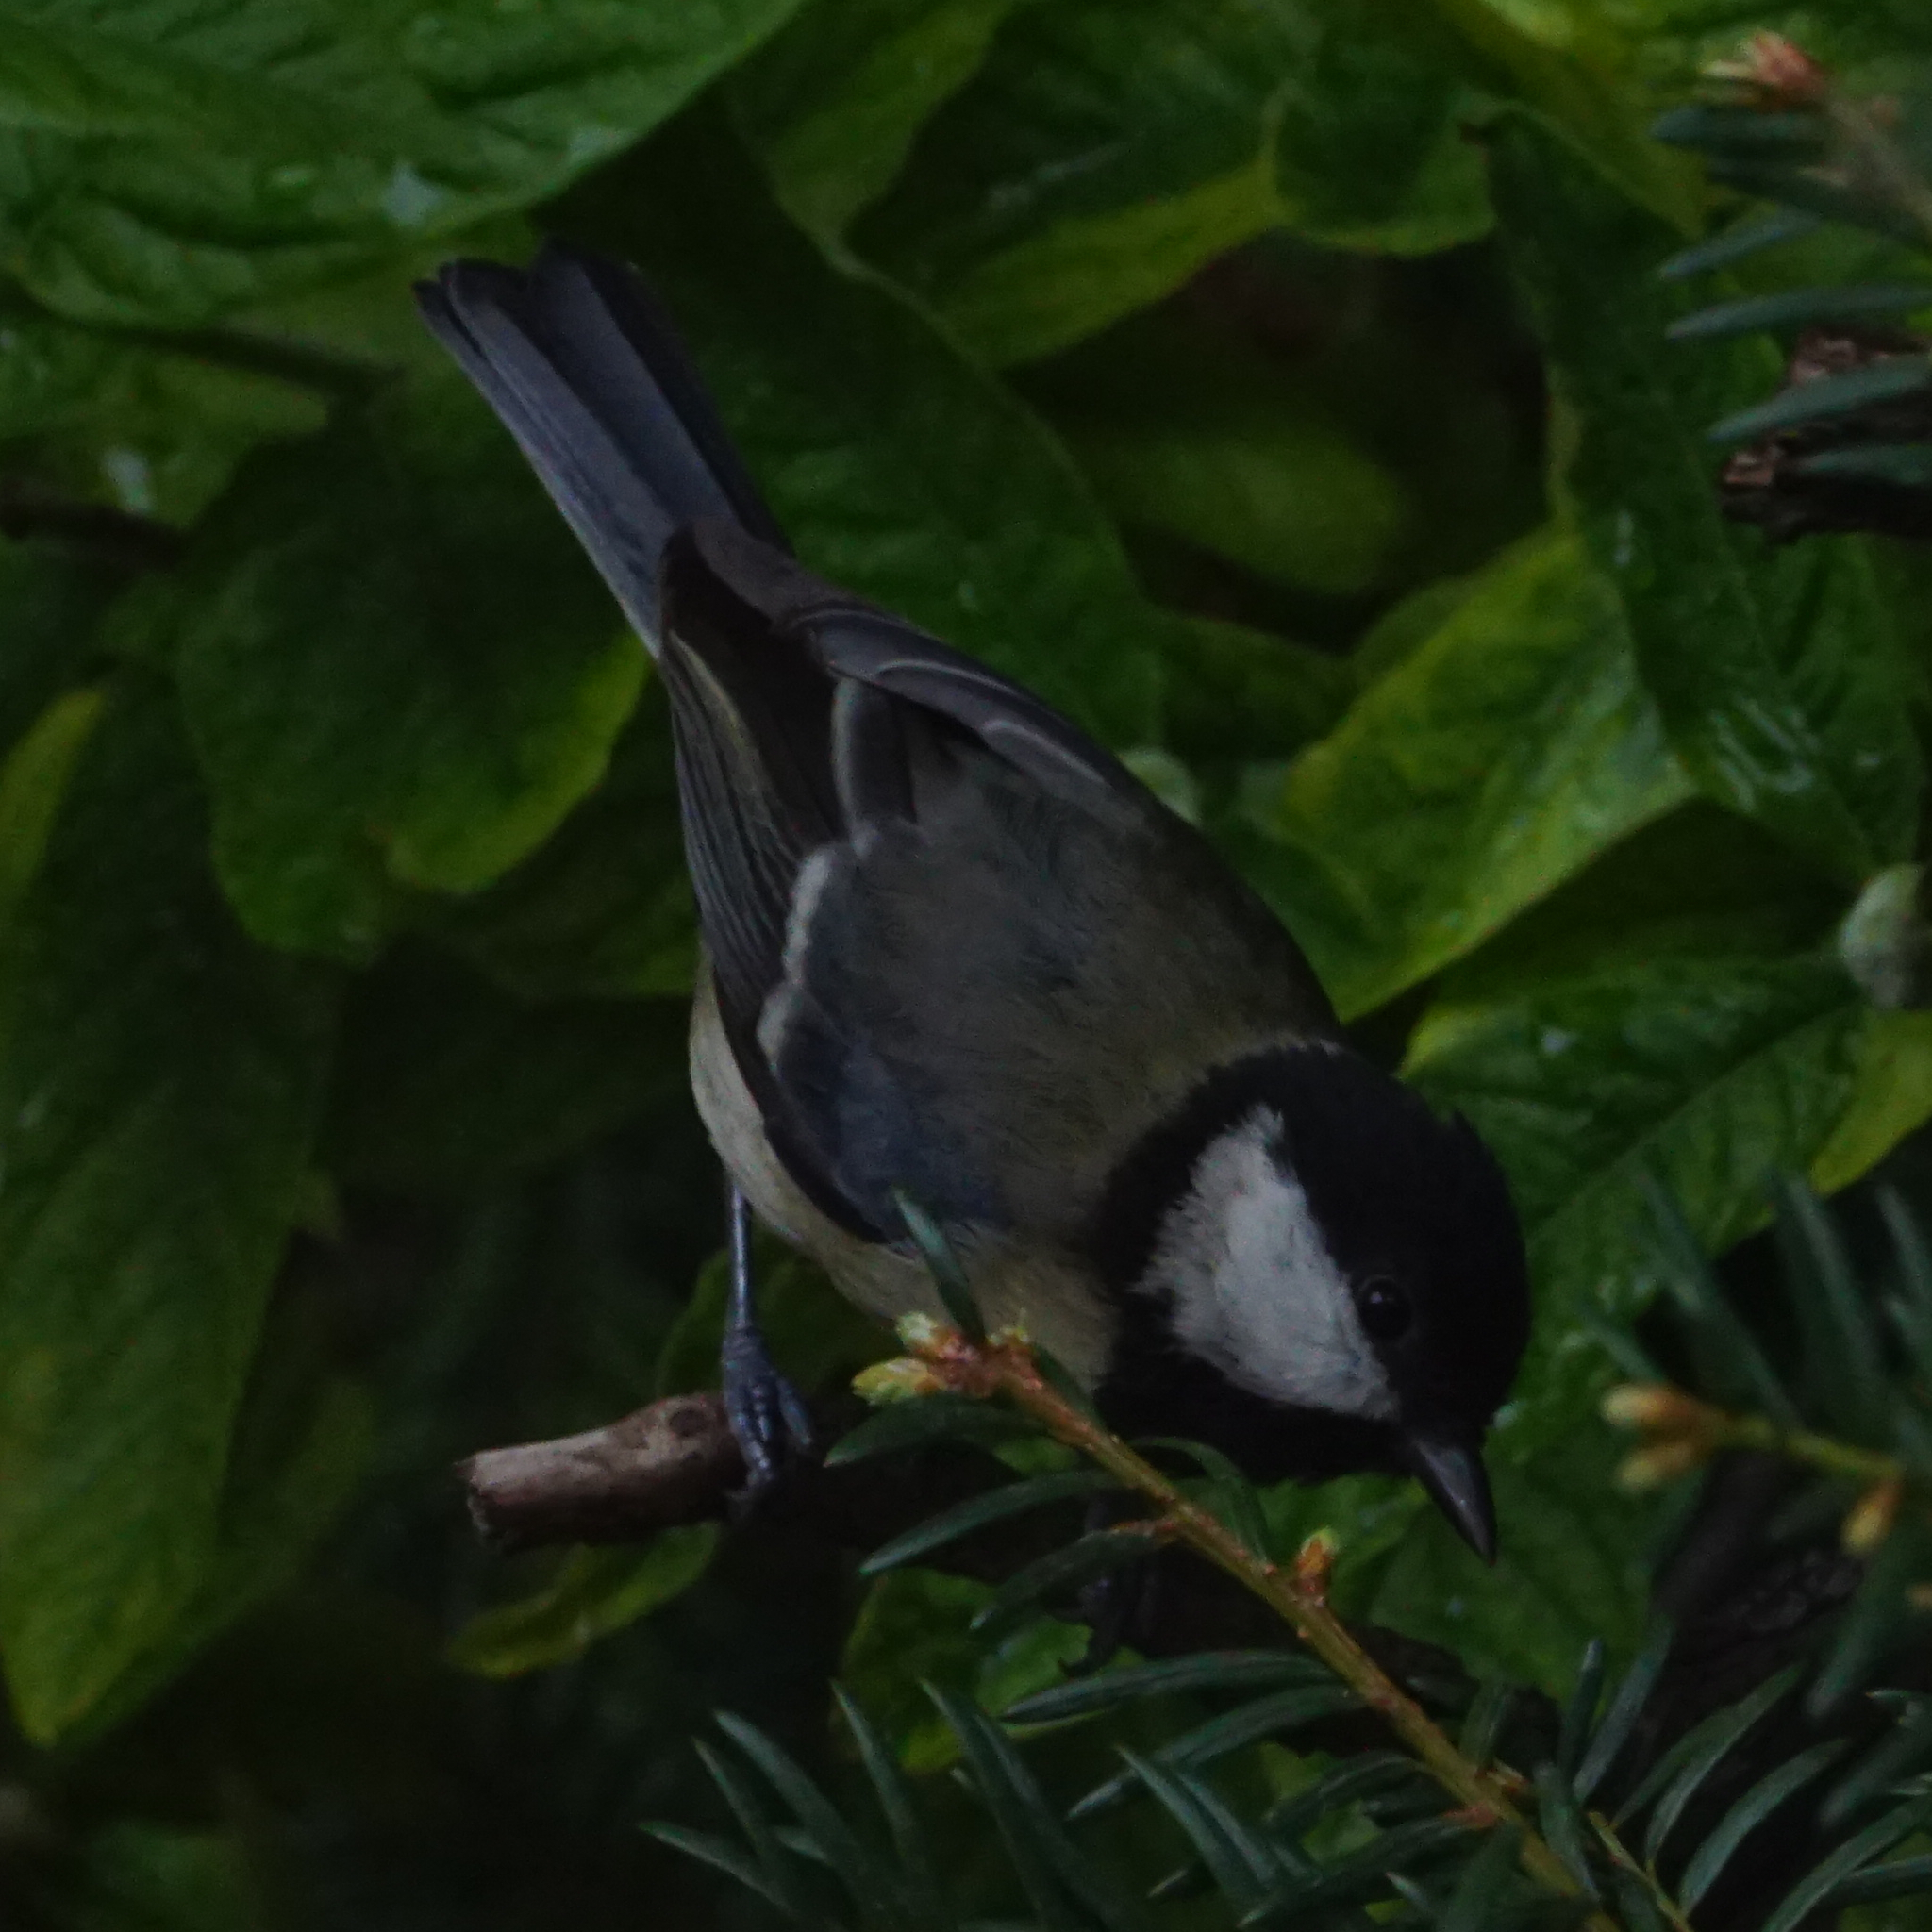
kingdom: Animalia
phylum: Chordata
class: Aves
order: Passeriformes
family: Paridae
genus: Parus
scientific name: Parus major
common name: Great tit
